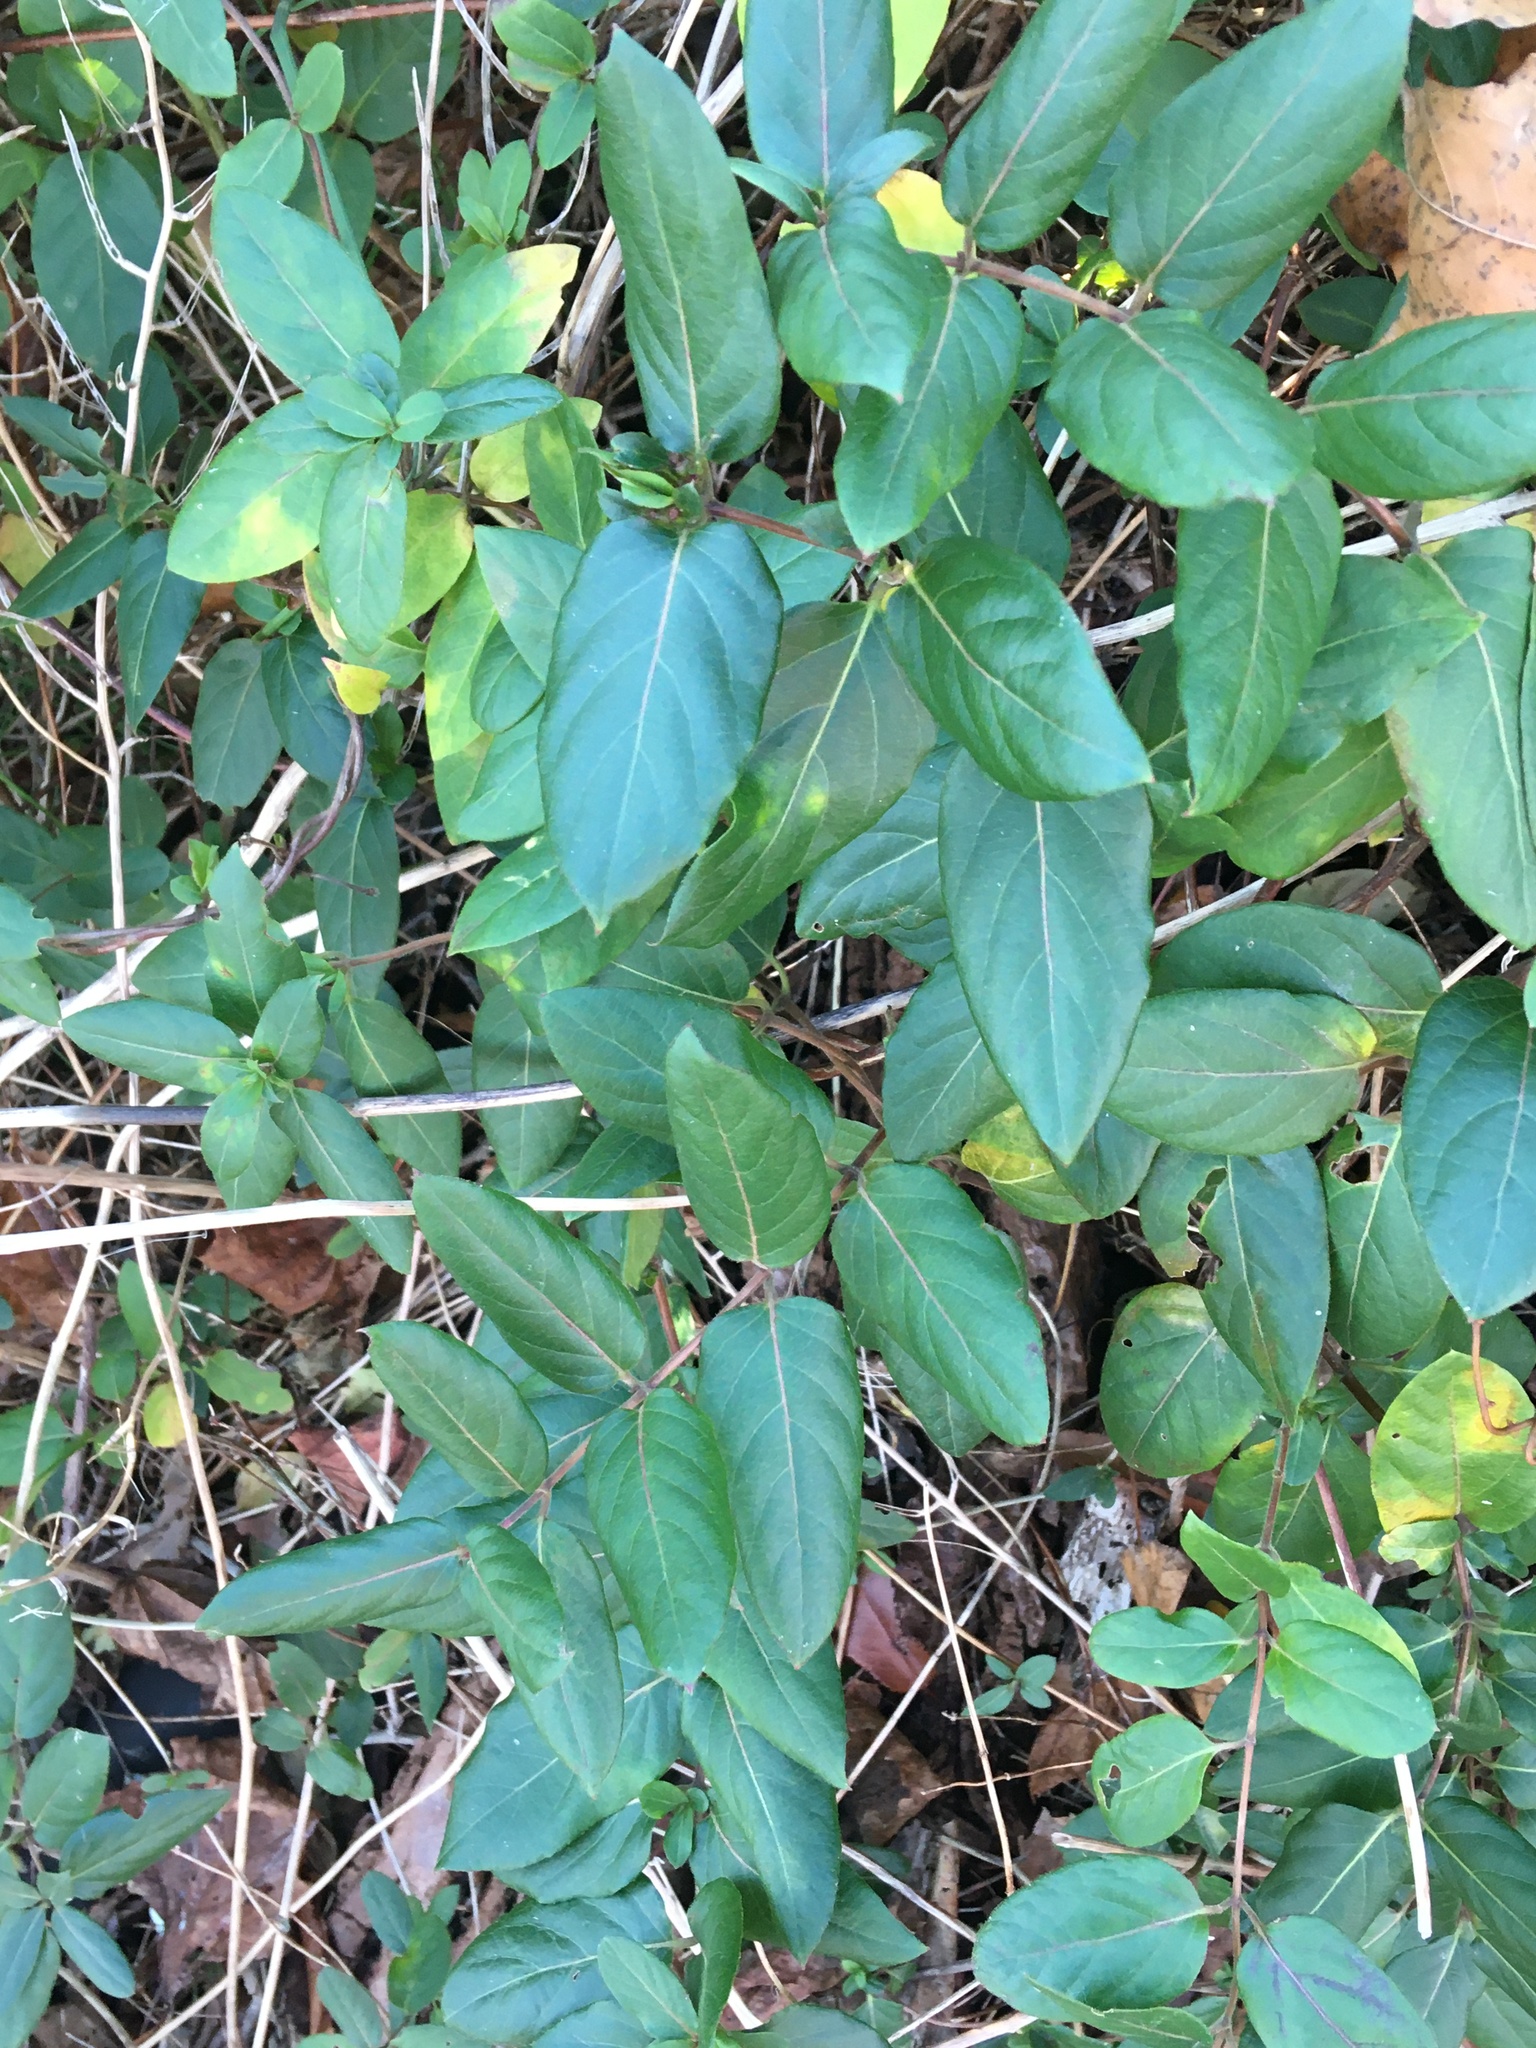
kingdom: Plantae
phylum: Tracheophyta
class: Magnoliopsida
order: Dipsacales
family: Caprifoliaceae
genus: Lonicera
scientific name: Lonicera japonica
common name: Japanese honeysuckle
